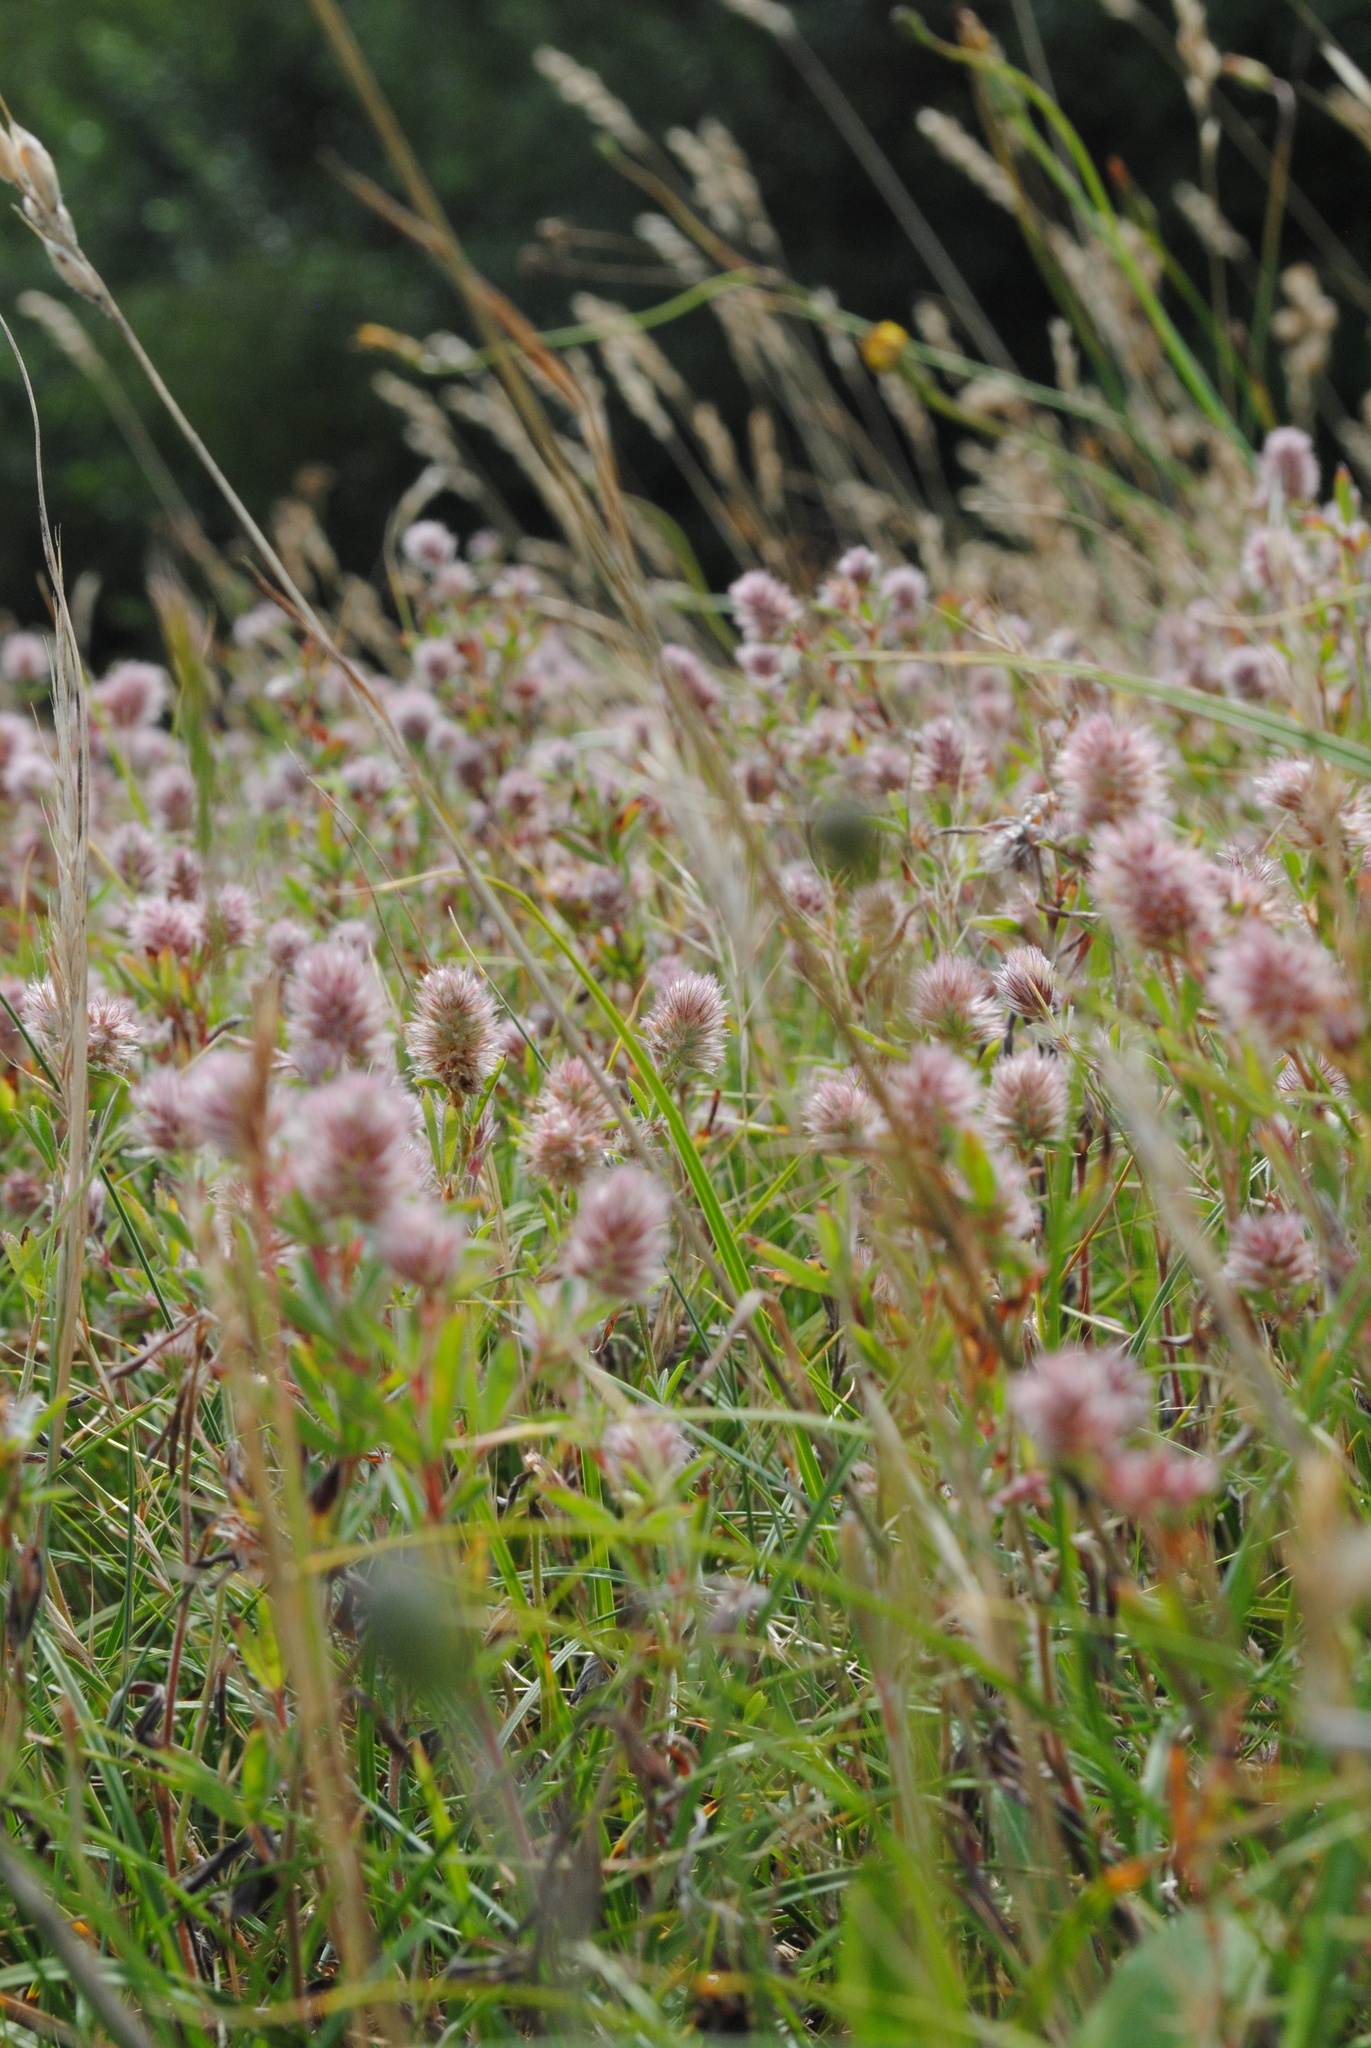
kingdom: Plantae
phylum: Tracheophyta
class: Magnoliopsida
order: Fabales
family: Fabaceae
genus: Trifolium
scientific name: Trifolium arvense
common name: Hare's-foot clover
